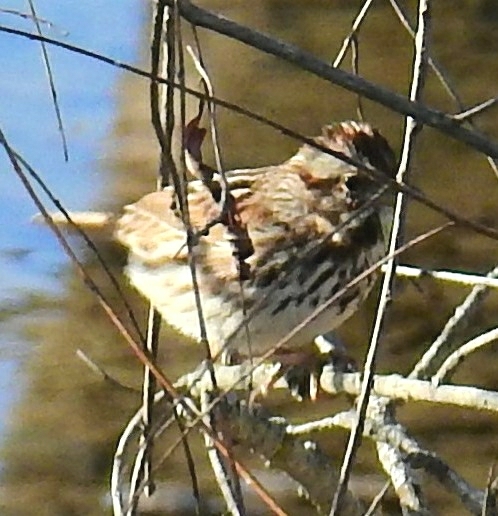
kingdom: Animalia
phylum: Chordata
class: Aves
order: Passeriformes
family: Passerellidae
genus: Melospiza
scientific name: Melospiza melodia
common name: Song sparrow
